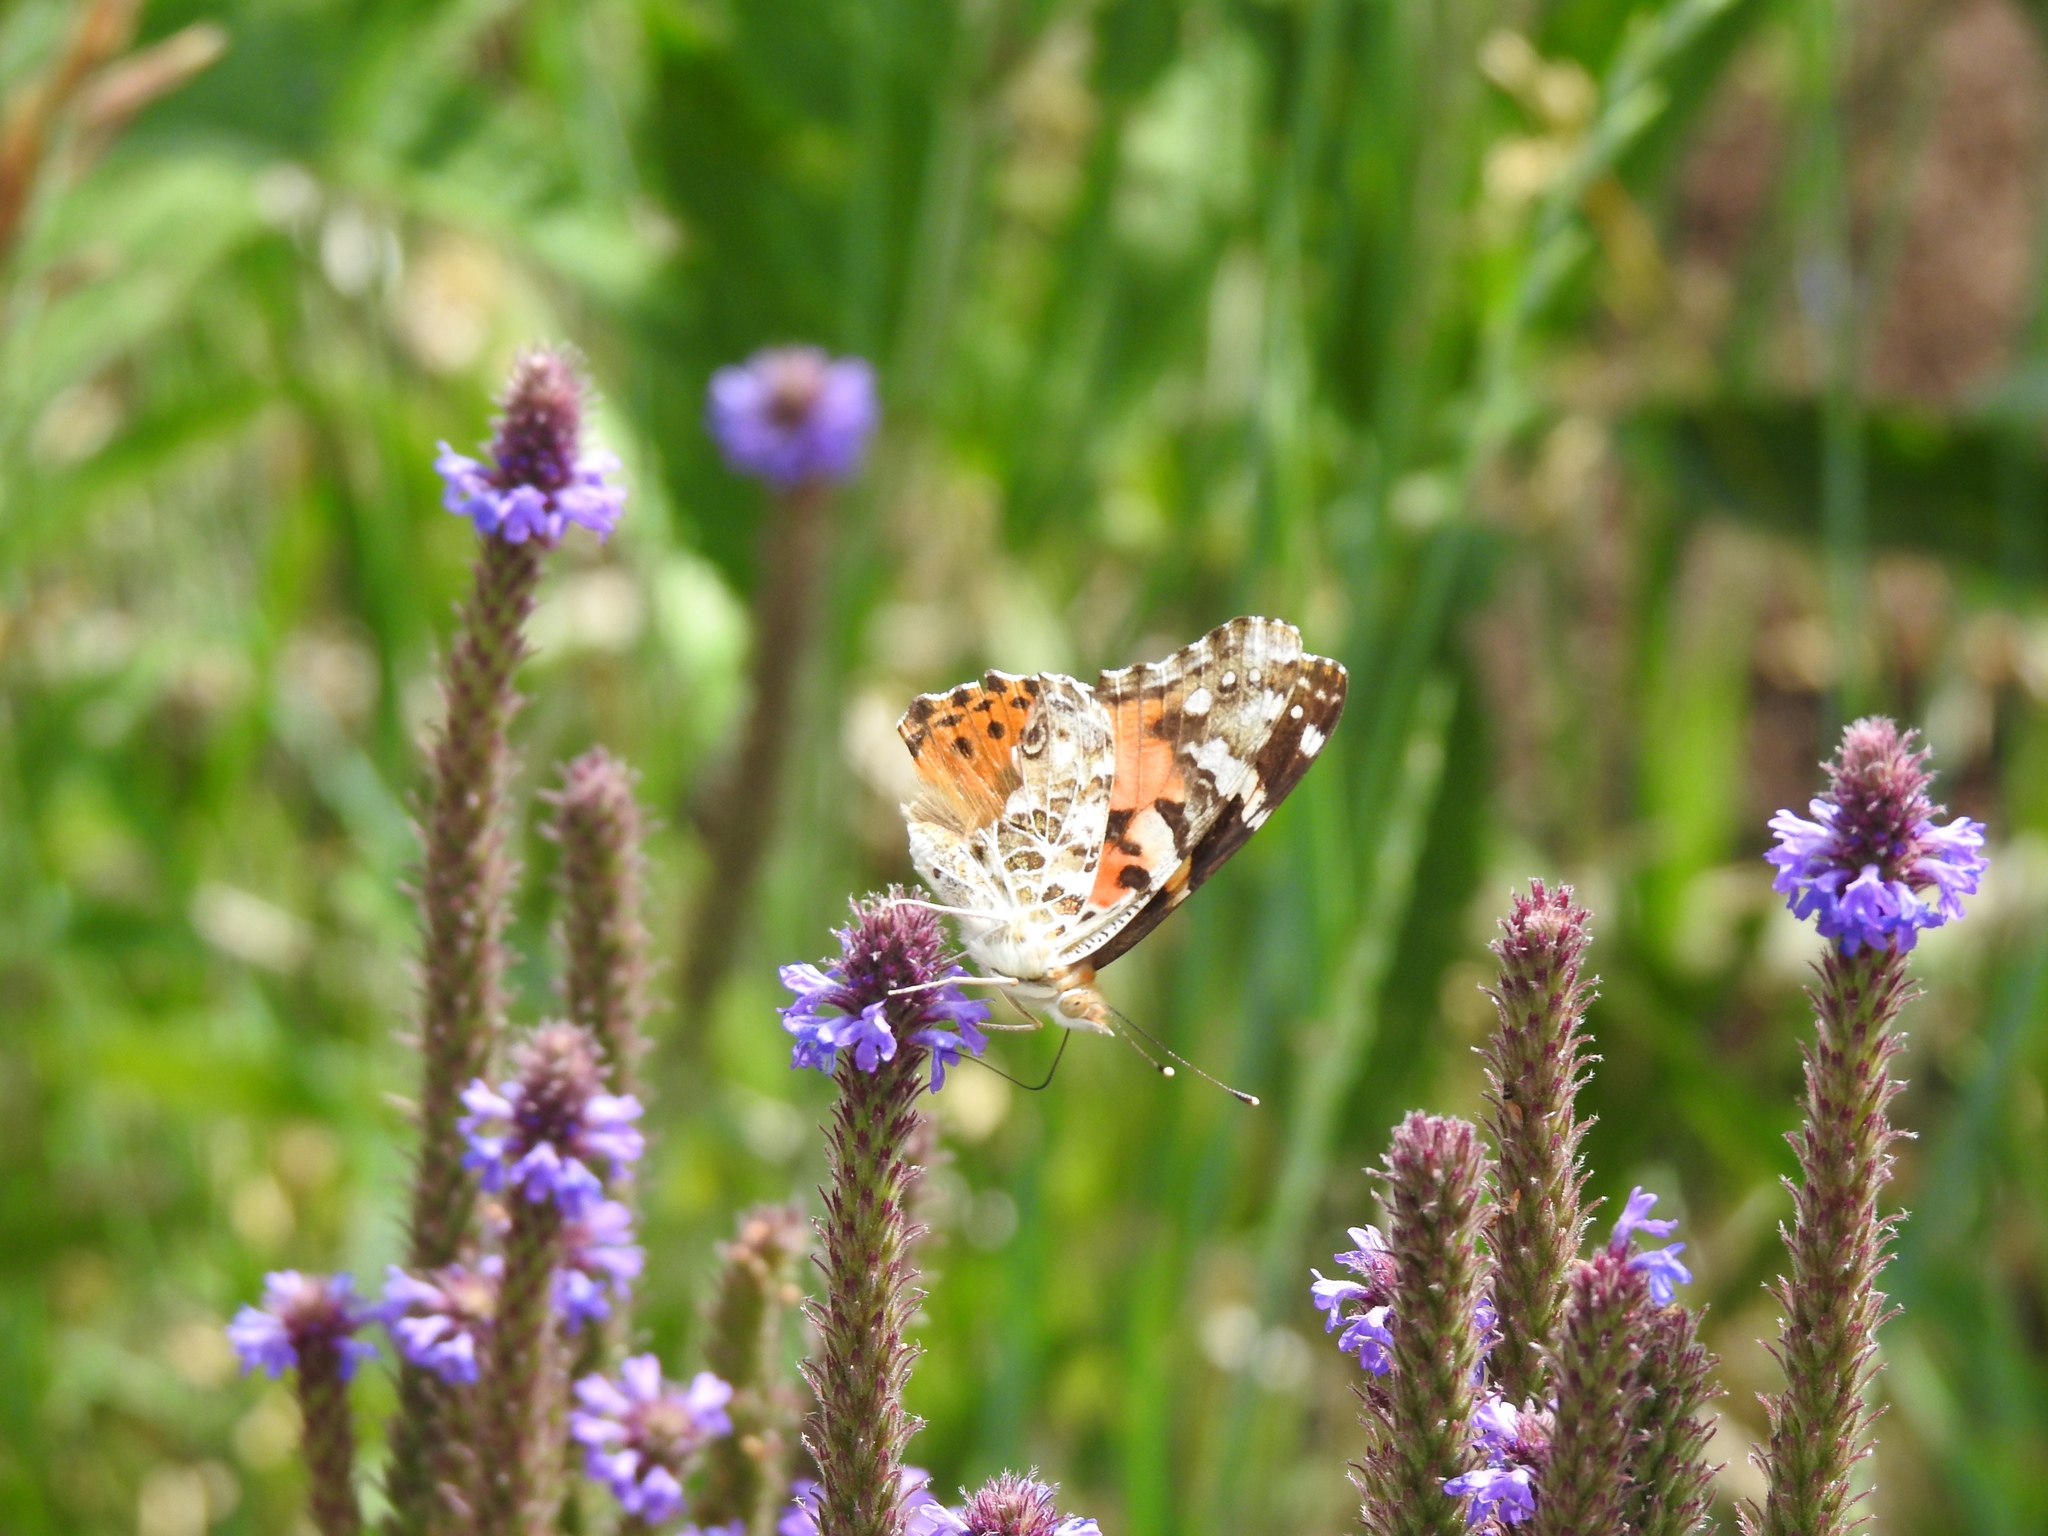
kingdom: Animalia
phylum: Arthropoda
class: Insecta
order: Lepidoptera
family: Nymphalidae
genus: Vanessa
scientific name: Vanessa cardui
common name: Painted lady
